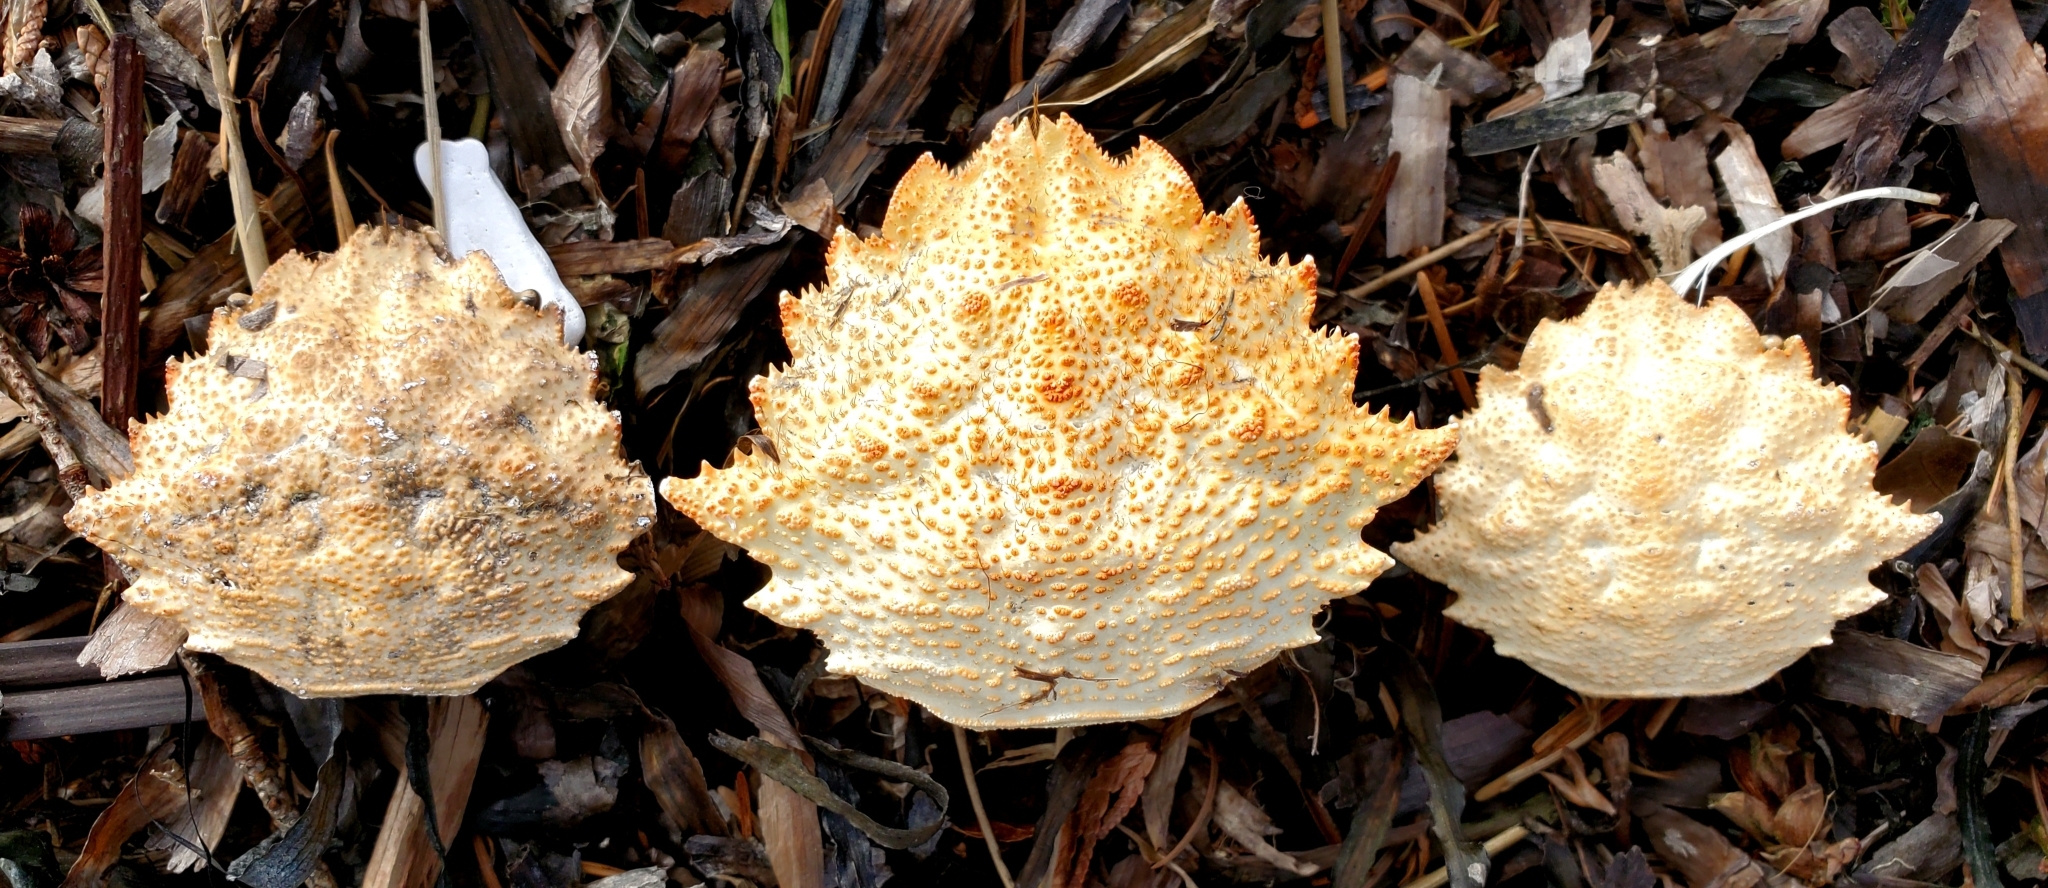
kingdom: Animalia
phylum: Arthropoda
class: Malacostraca
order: Decapoda
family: Cheiragonidae
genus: Telmessus
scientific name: Telmessus cheiragonus
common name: Helmet crab
